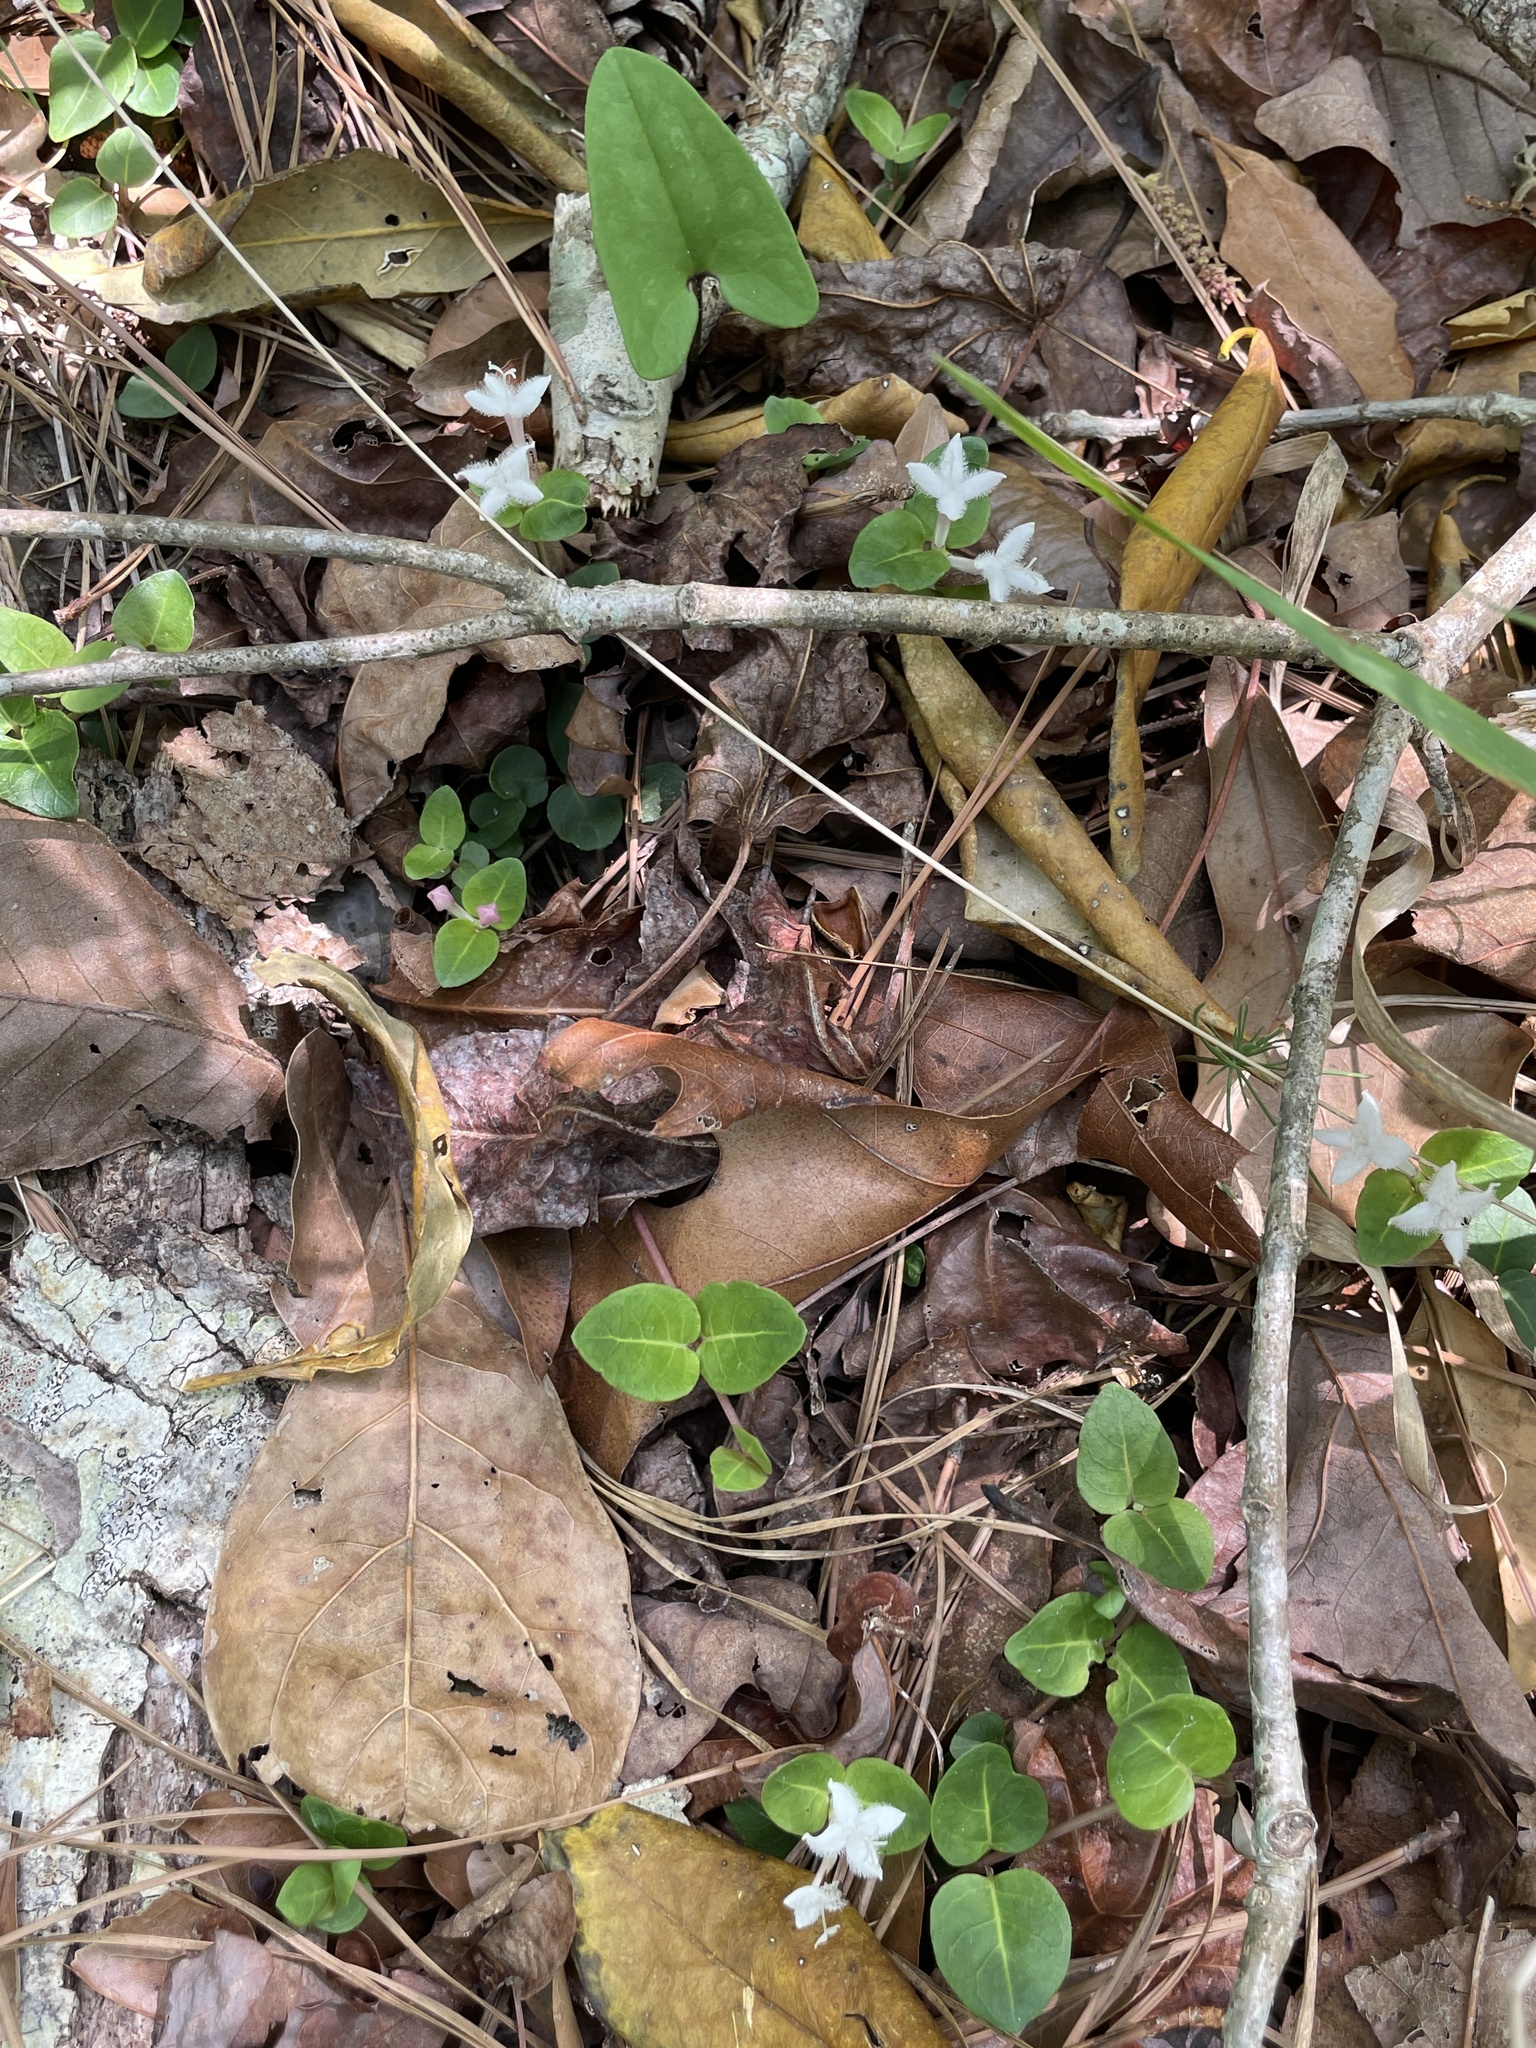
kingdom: Plantae
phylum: Tracheophyta
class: Magnoliopsida
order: Gentianales
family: Rubiaceae
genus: Mitchella
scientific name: Mitchella repens
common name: Partridge-berry
